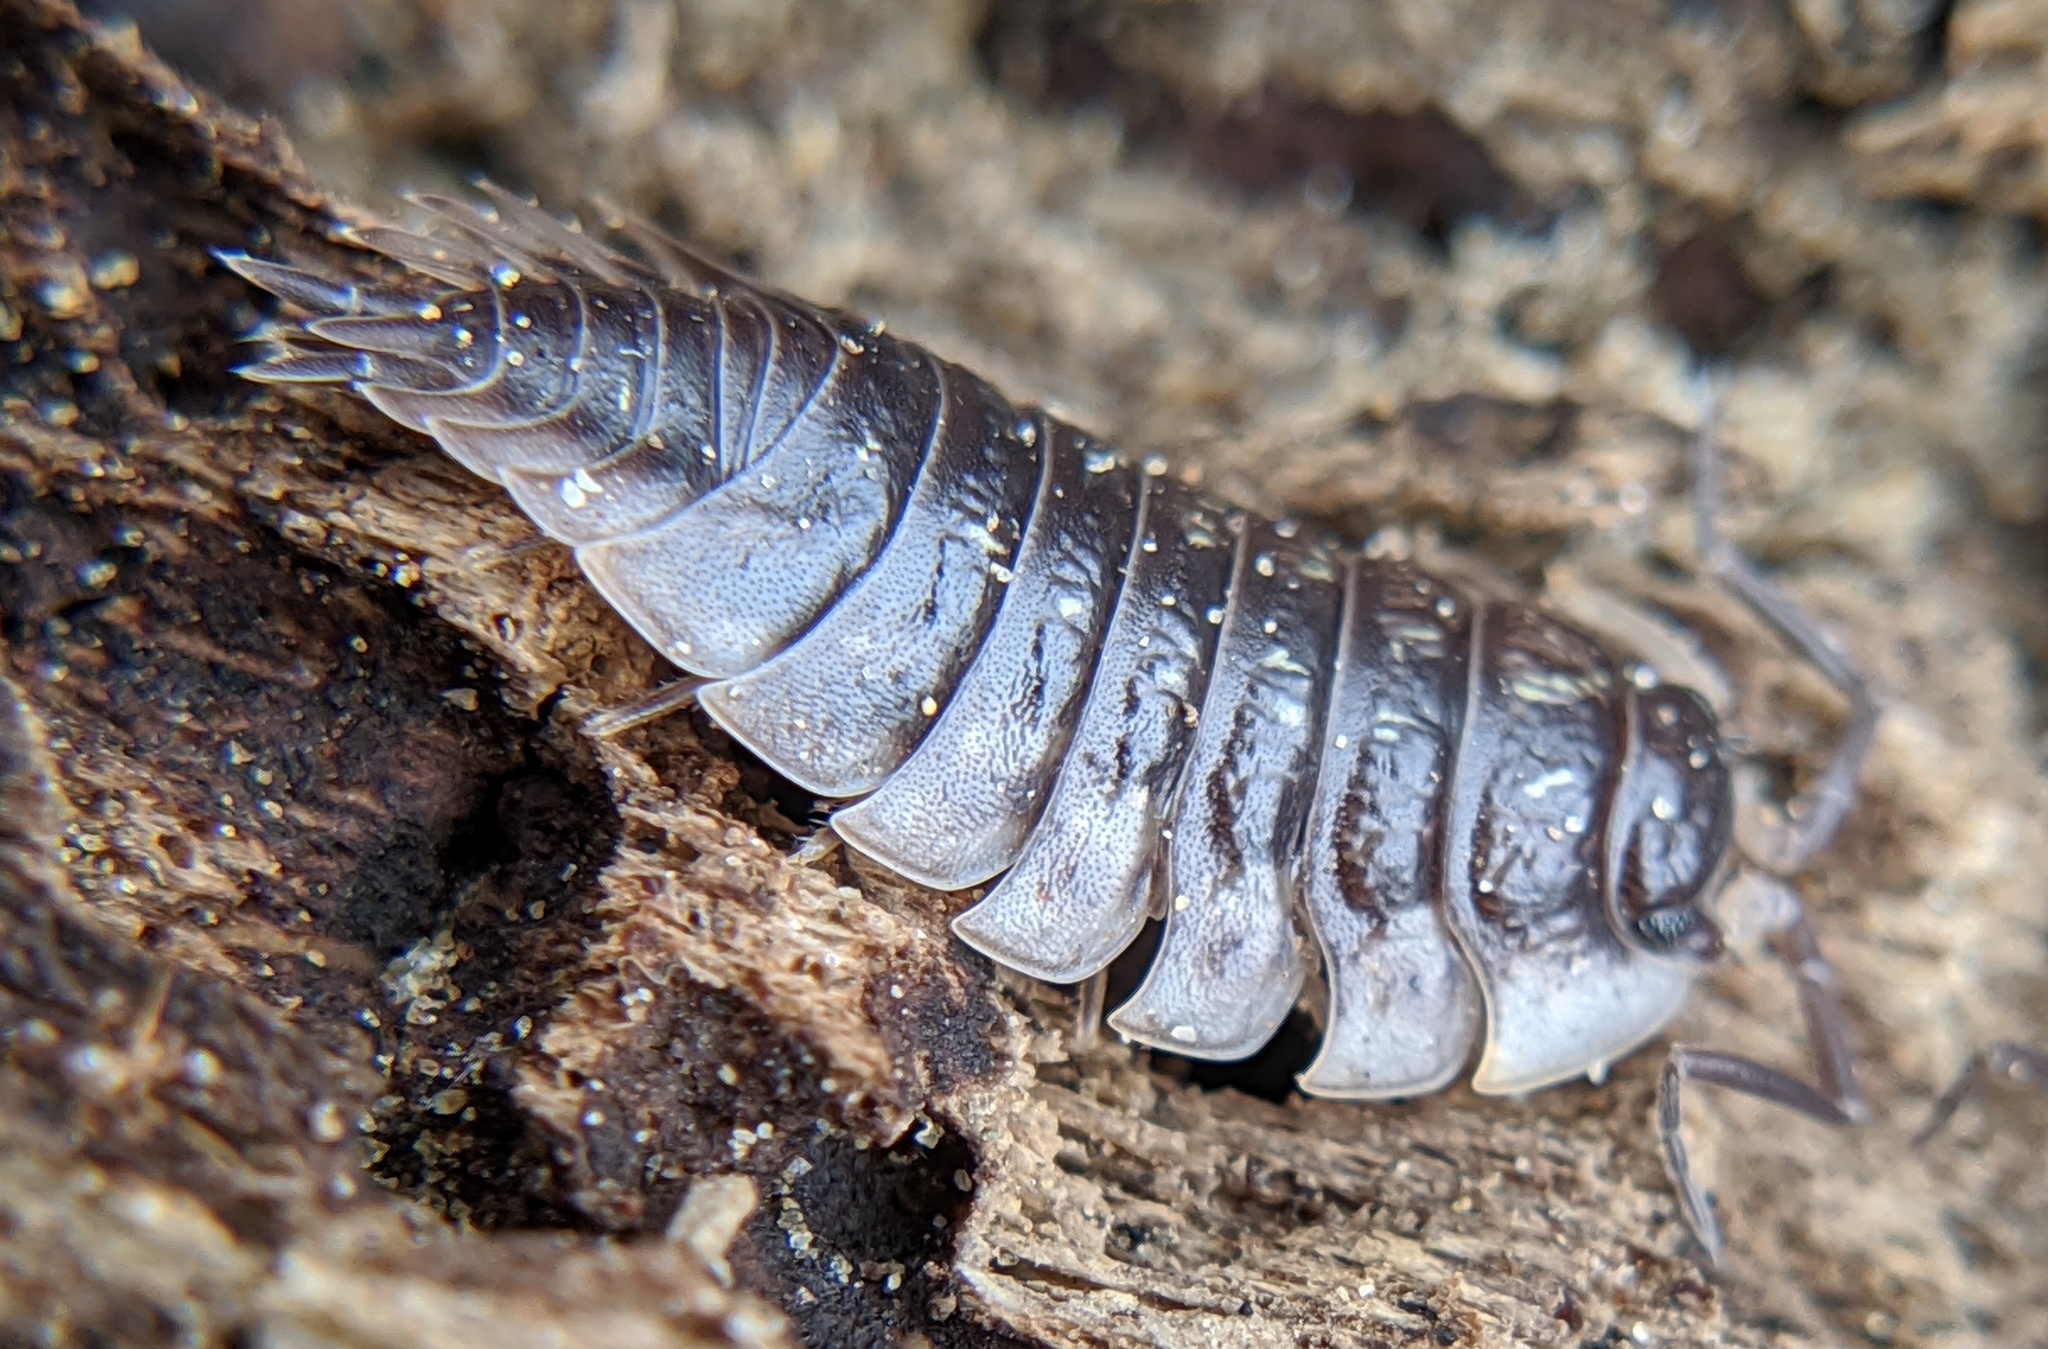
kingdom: Animalia
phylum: Arthropoda
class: Malacostraca
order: Isopoda
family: Oniscidae
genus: Oniscus
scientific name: Oniscus asellus
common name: Common shiny woodlouse
